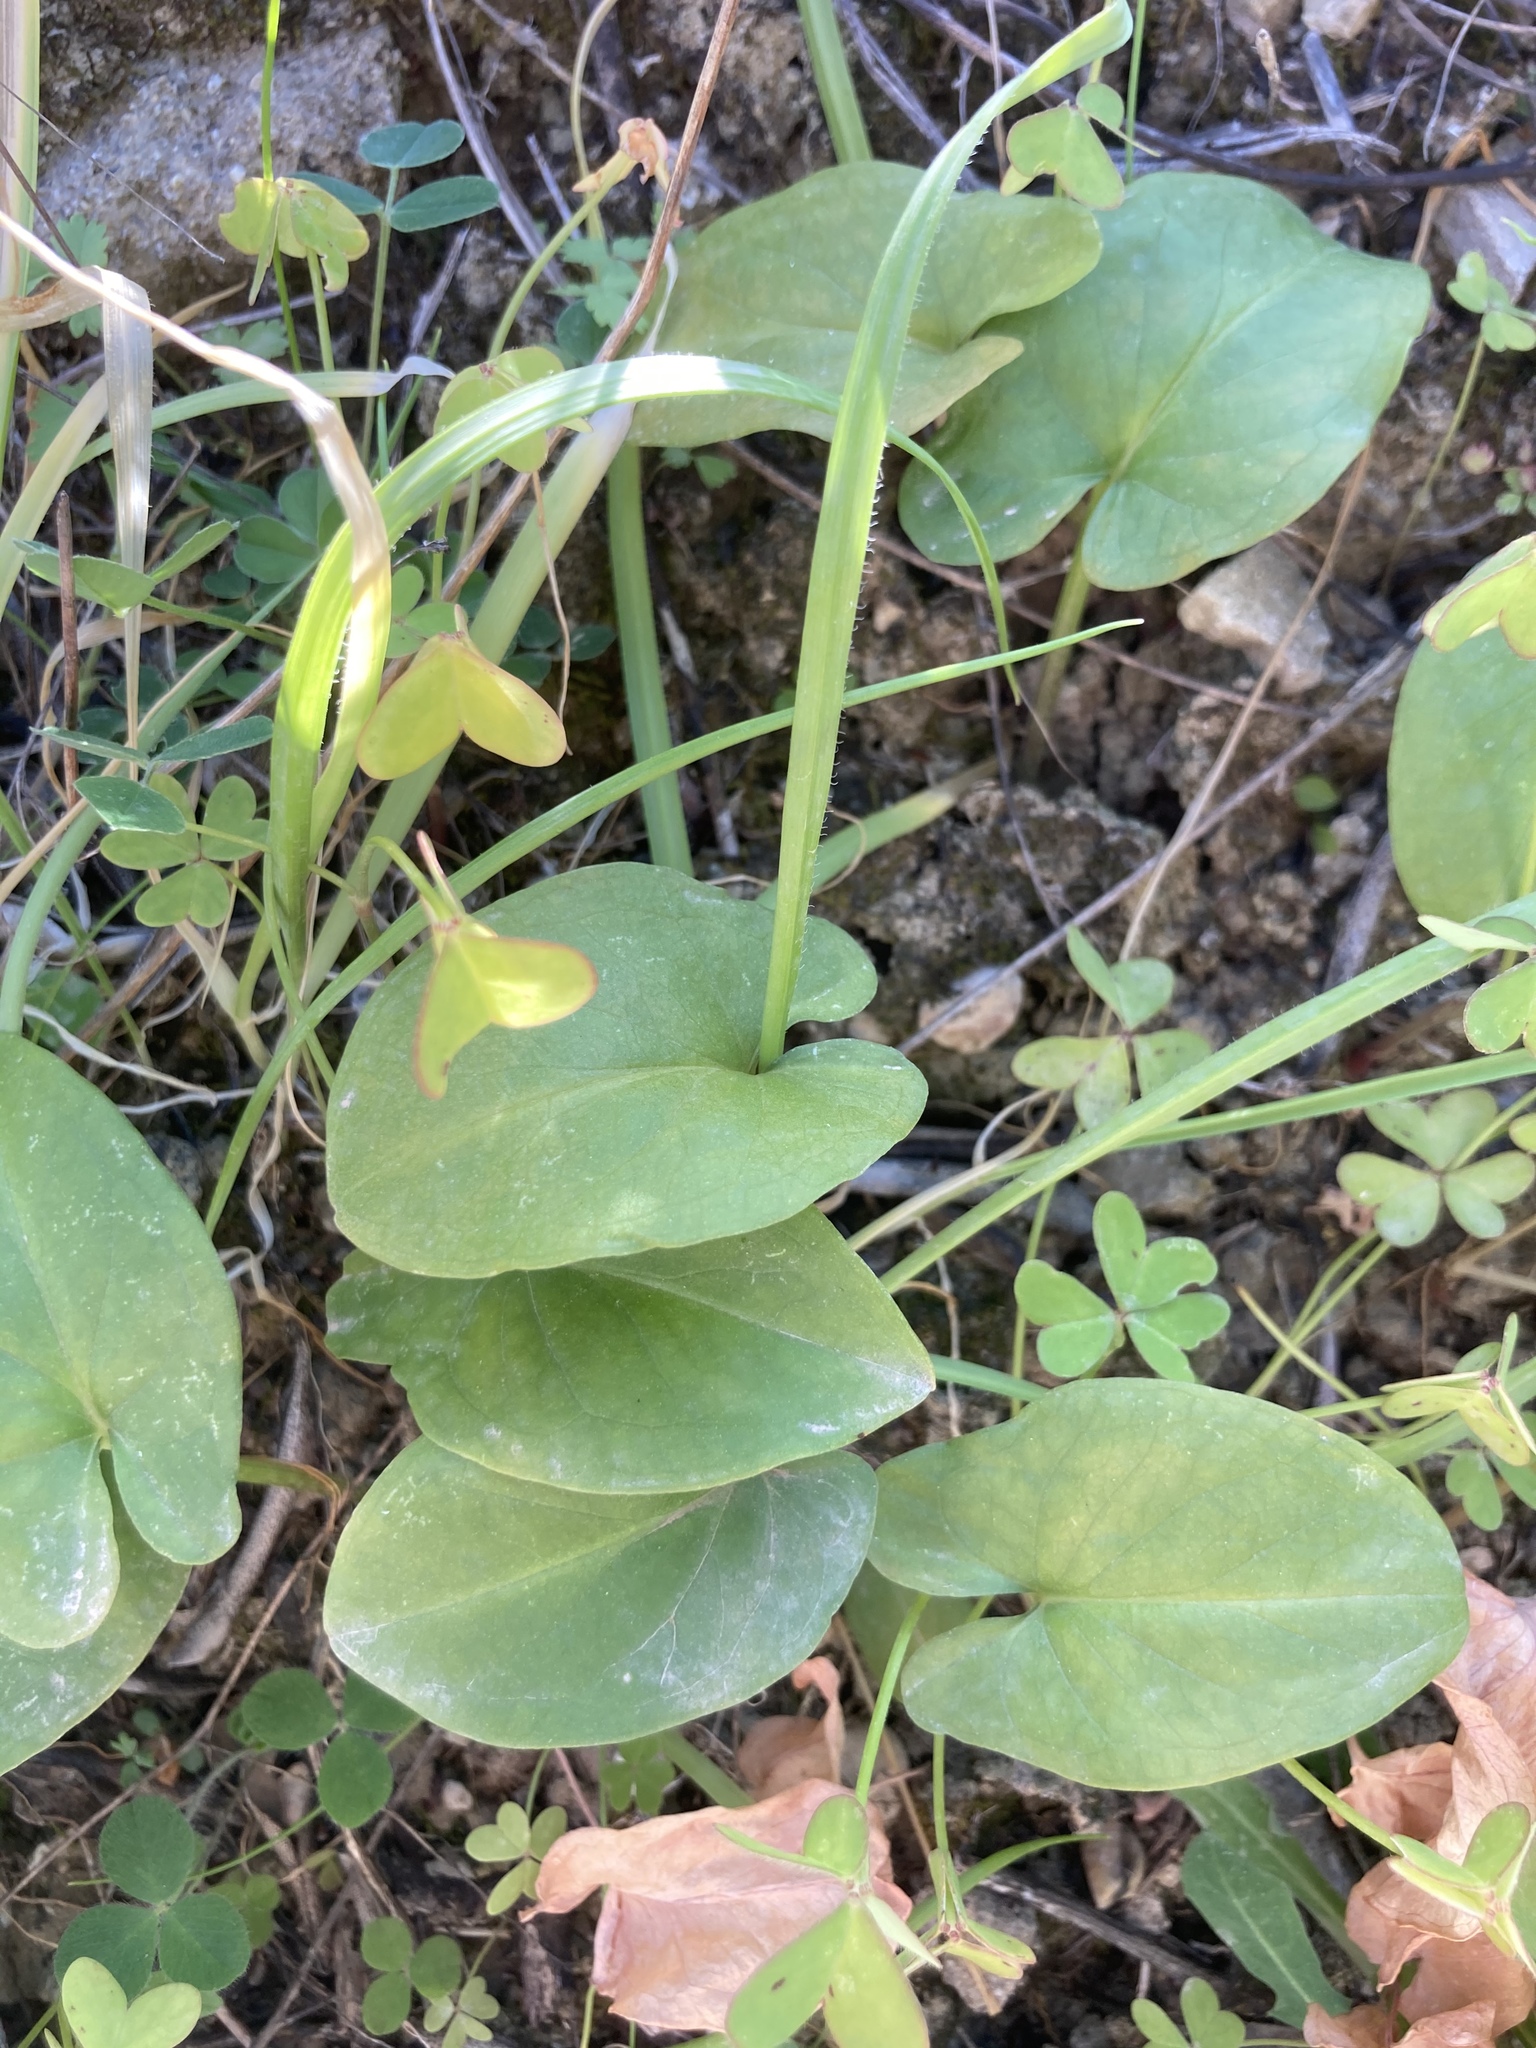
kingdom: Plantae
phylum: Tracheophyta
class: Liliopsida
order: Alismatales
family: Araceae
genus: Arisarum
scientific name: Arisarum vulgare
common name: Common arisarum
